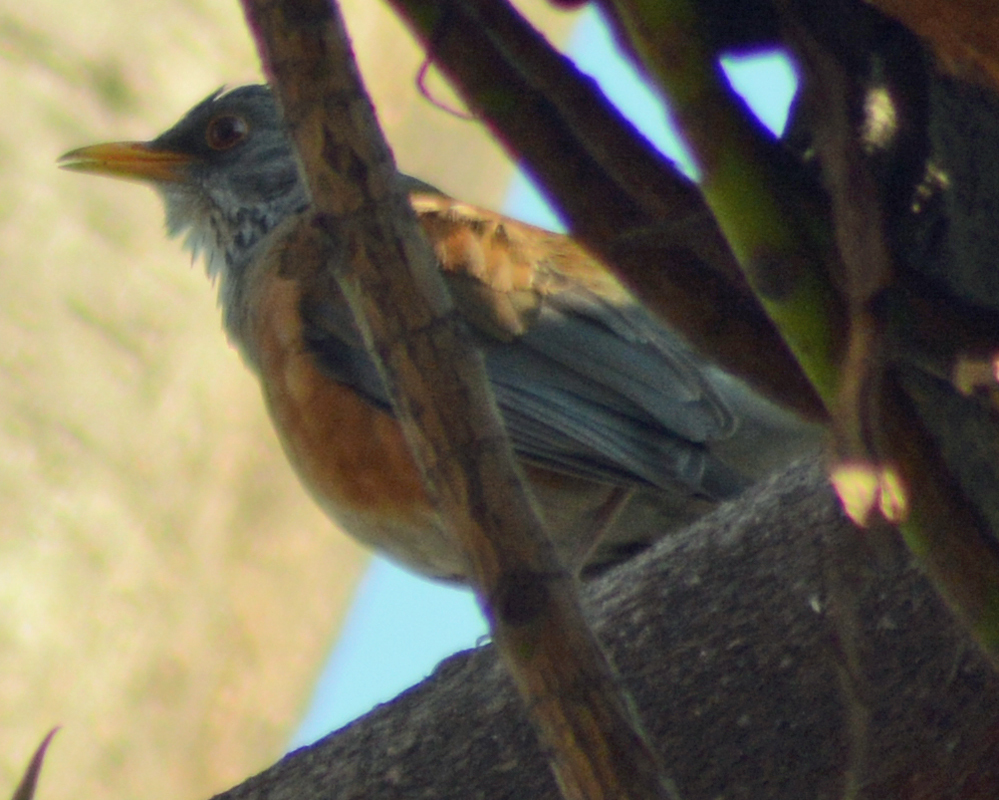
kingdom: Animalia
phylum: Chordata
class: Aves
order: Passeriformes
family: Turdidae
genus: Turdus
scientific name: Turdus rufopalliatus
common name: Rufous-backed robin
